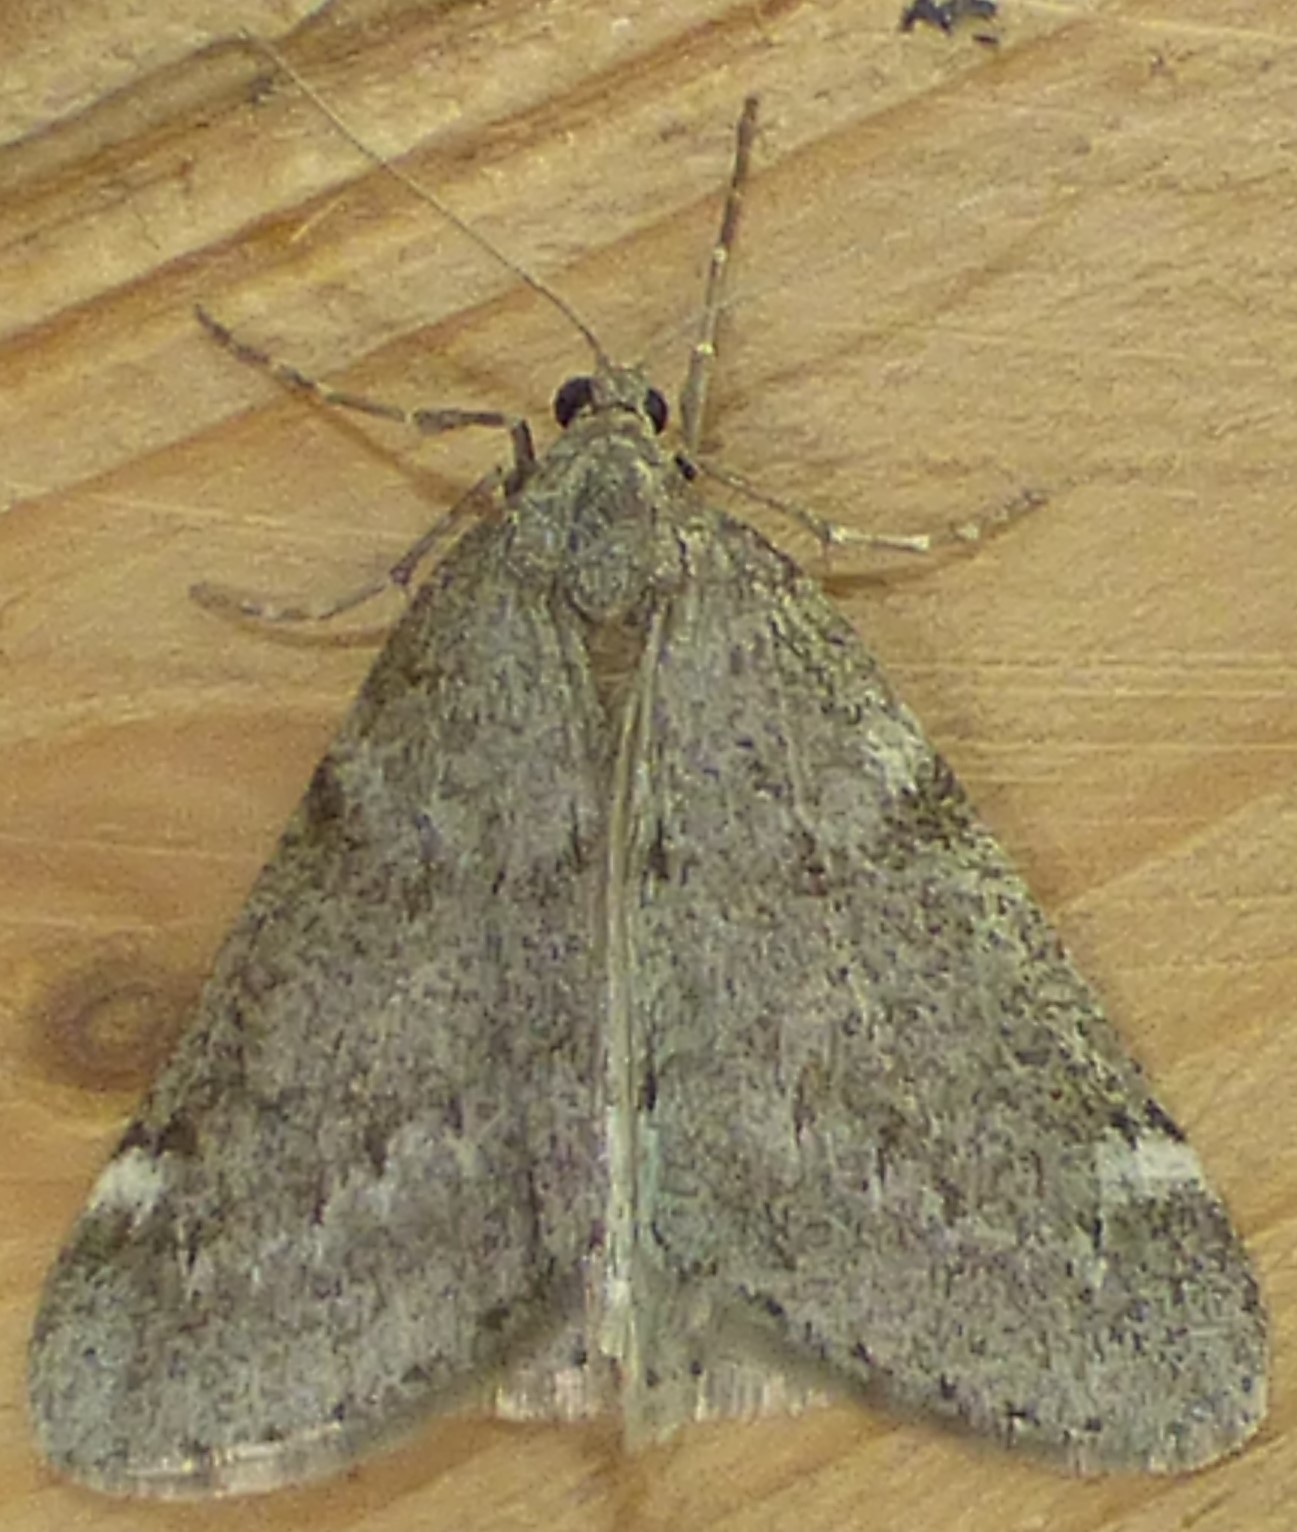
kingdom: Animalia
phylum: Arthropoda
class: Insecta
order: Lepidoptera
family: Geometridae
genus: Alsophila
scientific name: Alsophila pometaria
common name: Fall cankerworm
